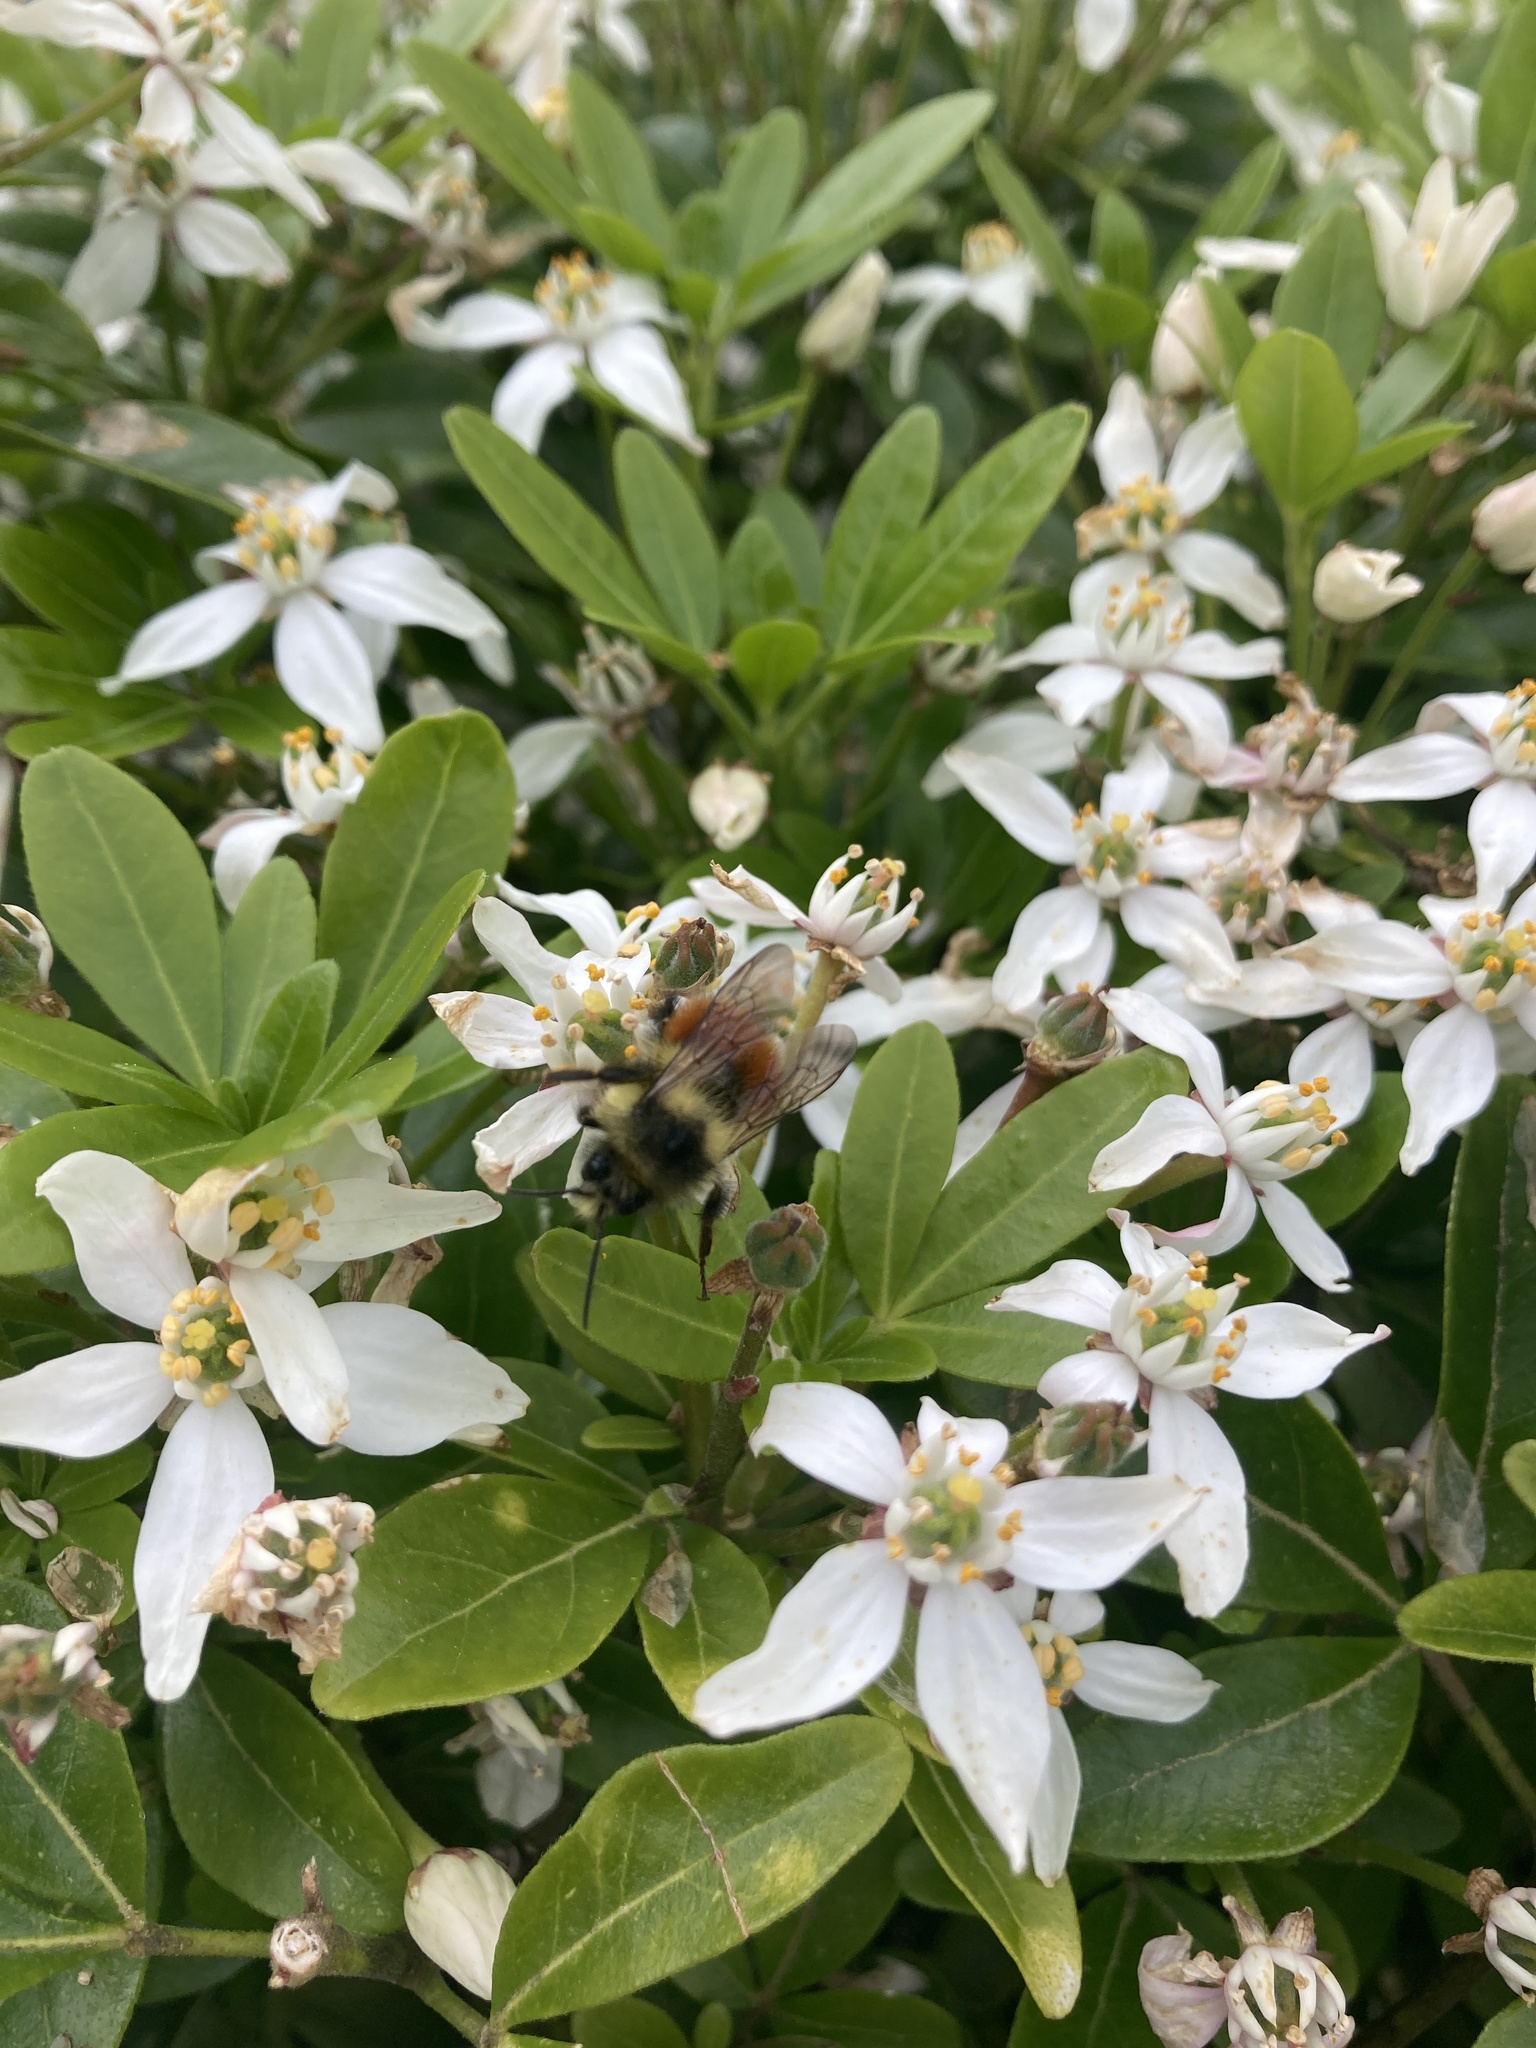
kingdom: Animalia
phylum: Arthropoda
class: Insecta
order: Hymenoptera
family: Apidae
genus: Bombus
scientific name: Bombus melanopygus
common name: Black tail bumble bee
